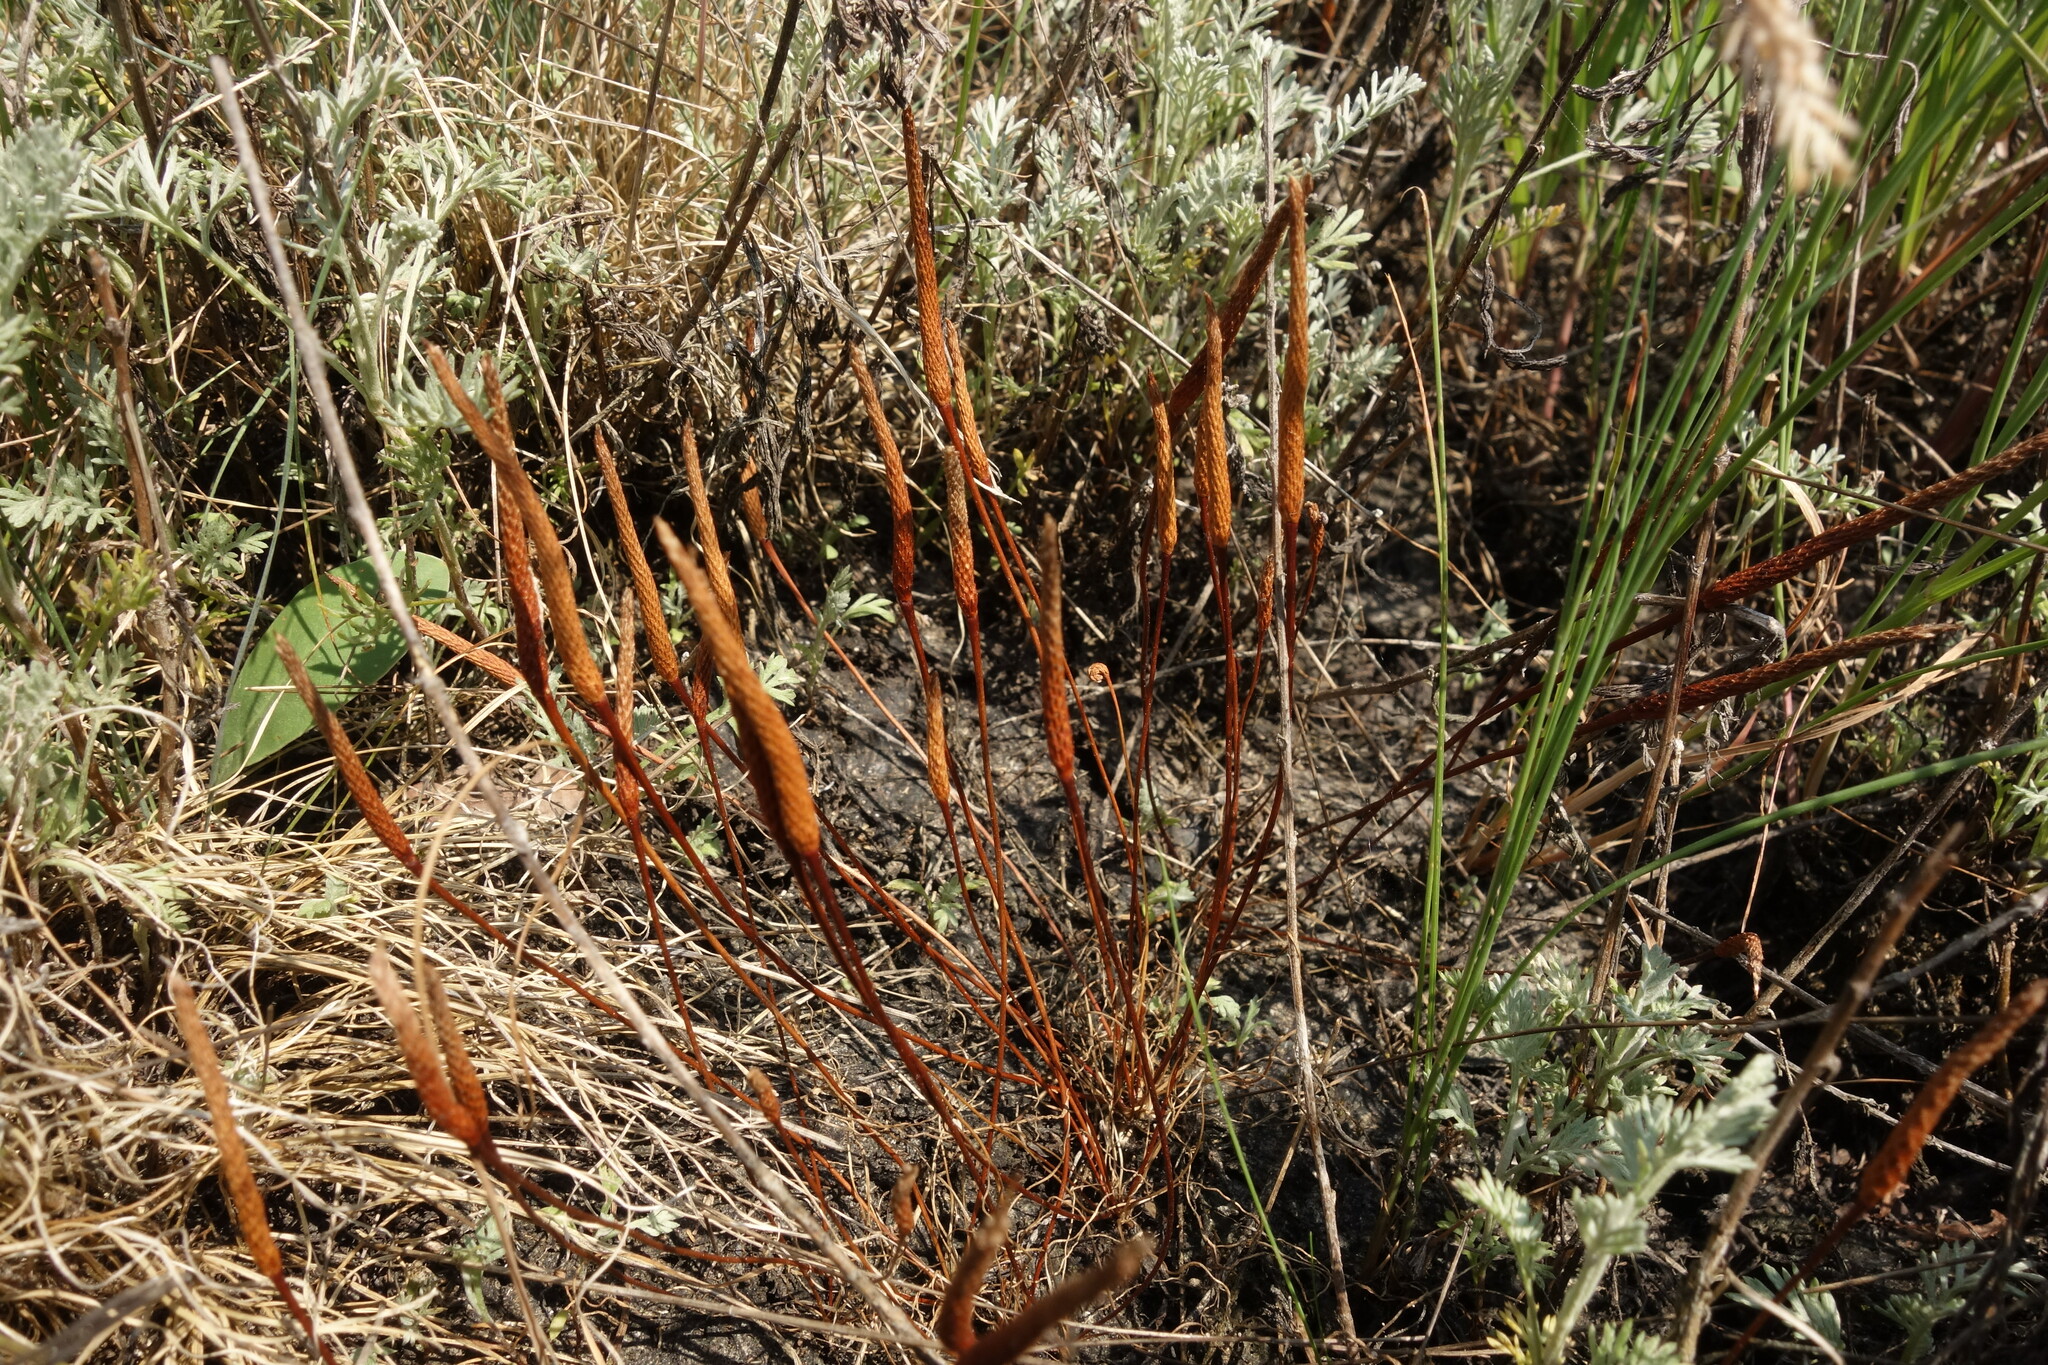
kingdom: Plantae
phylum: Tracheophyta
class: Magnoliopsida
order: Ranunculales
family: Ranunculaceae
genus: Myosurus
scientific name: Myosurus minimus
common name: Mousetail
